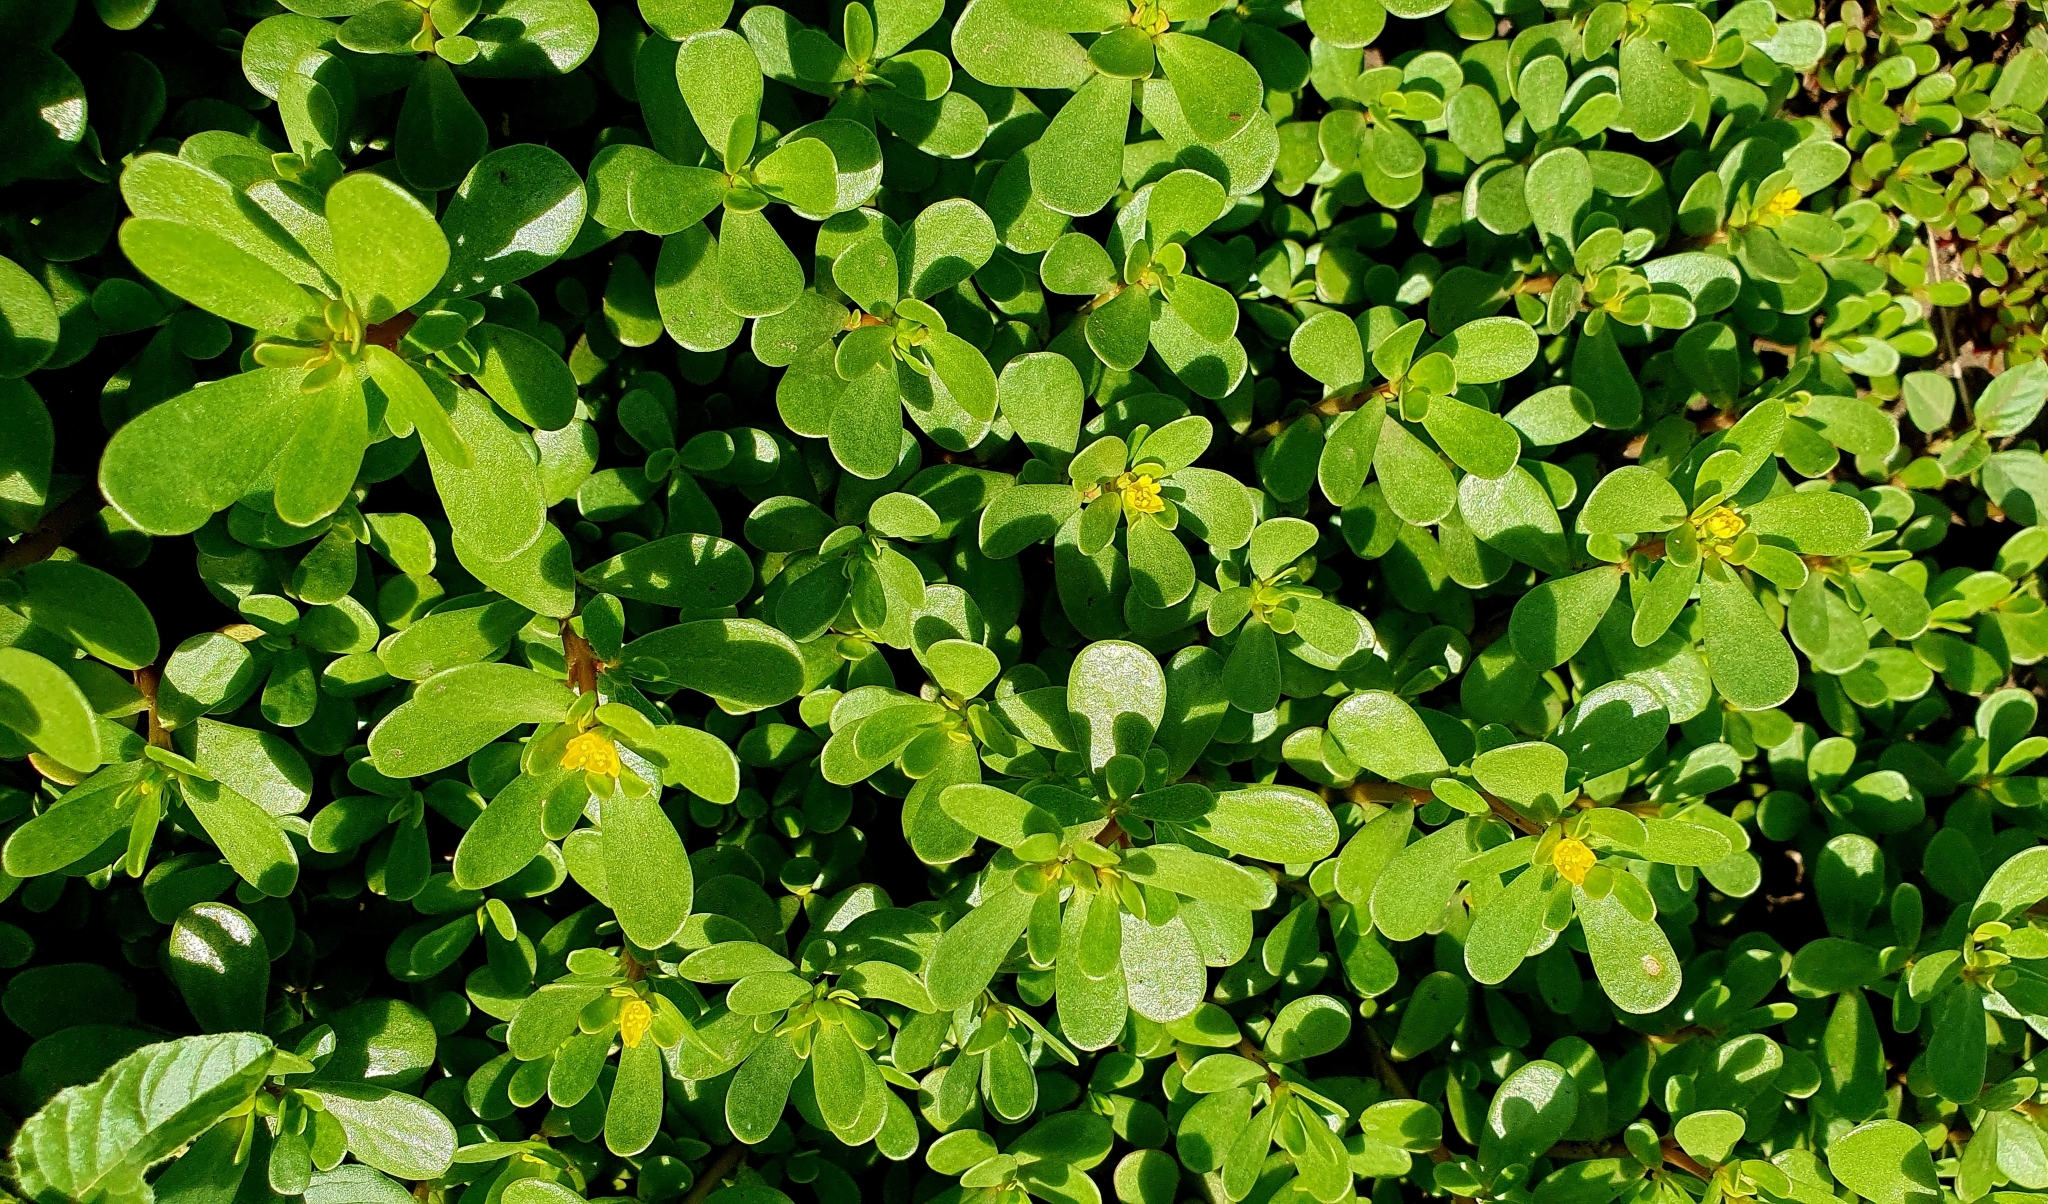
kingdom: Plantae
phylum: Tracheophyta
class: Magnoliopsida
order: Caryophyllales
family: Portulacaceae
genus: Portulaca
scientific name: Portulaca oleracea
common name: Common purslane
